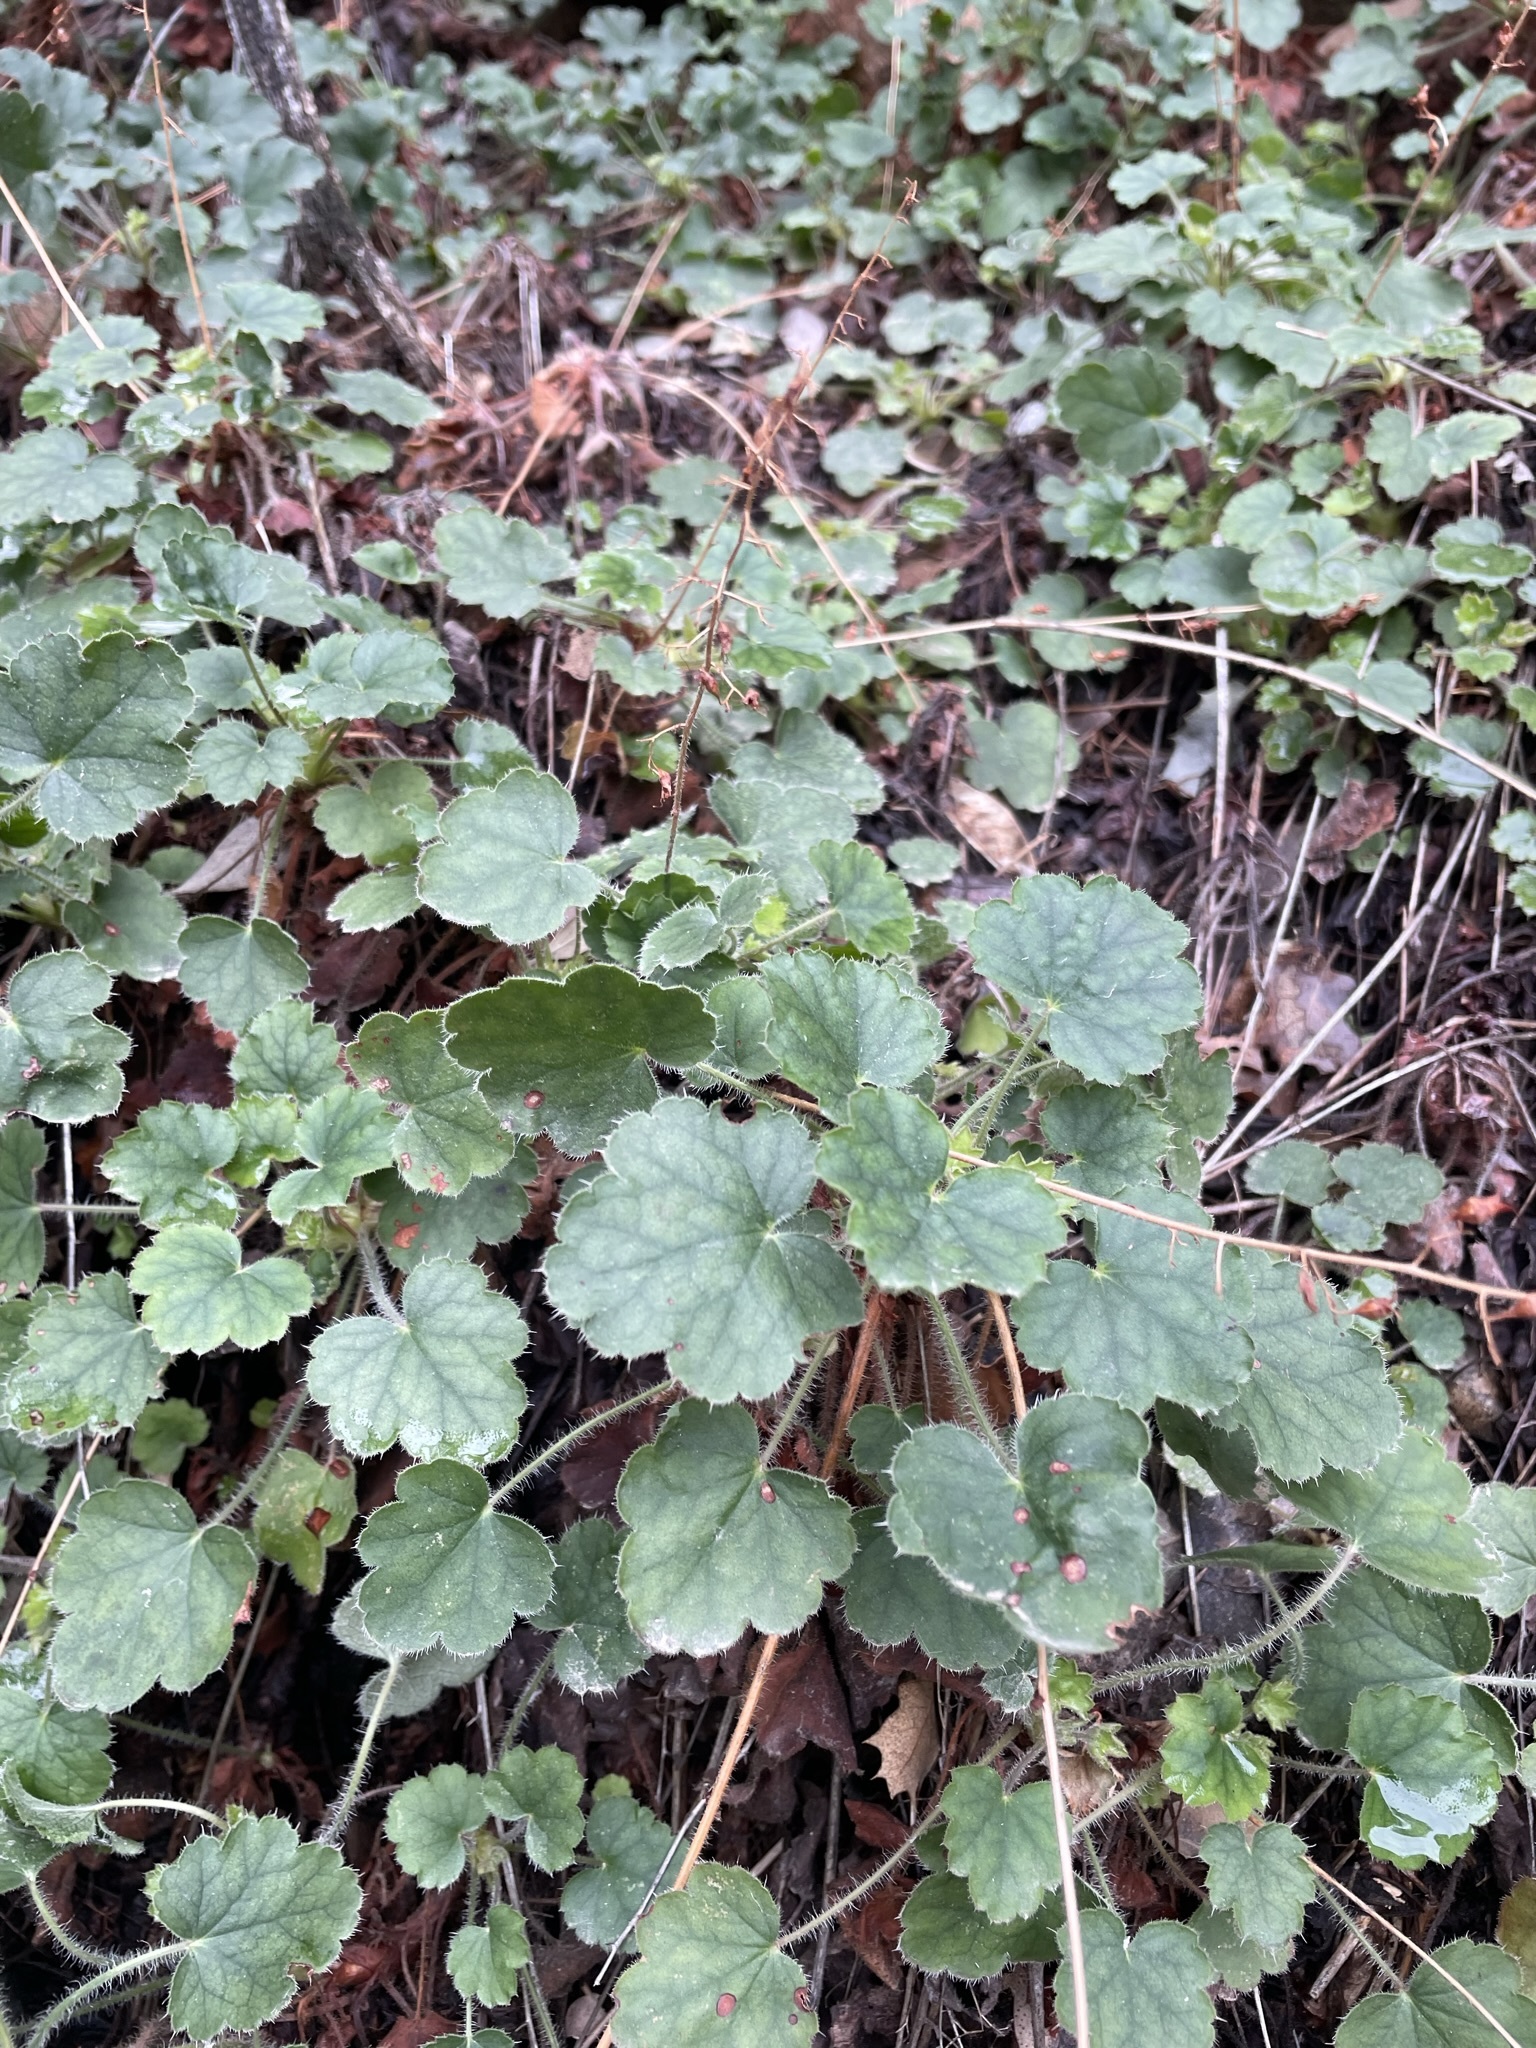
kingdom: Plantae
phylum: Tracheophyta
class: Magnoliopsida
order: Saxifragales
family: Saxifragaceae
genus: Heuchera
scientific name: Heuchera rubescens
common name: Jack-o'the-rocks
